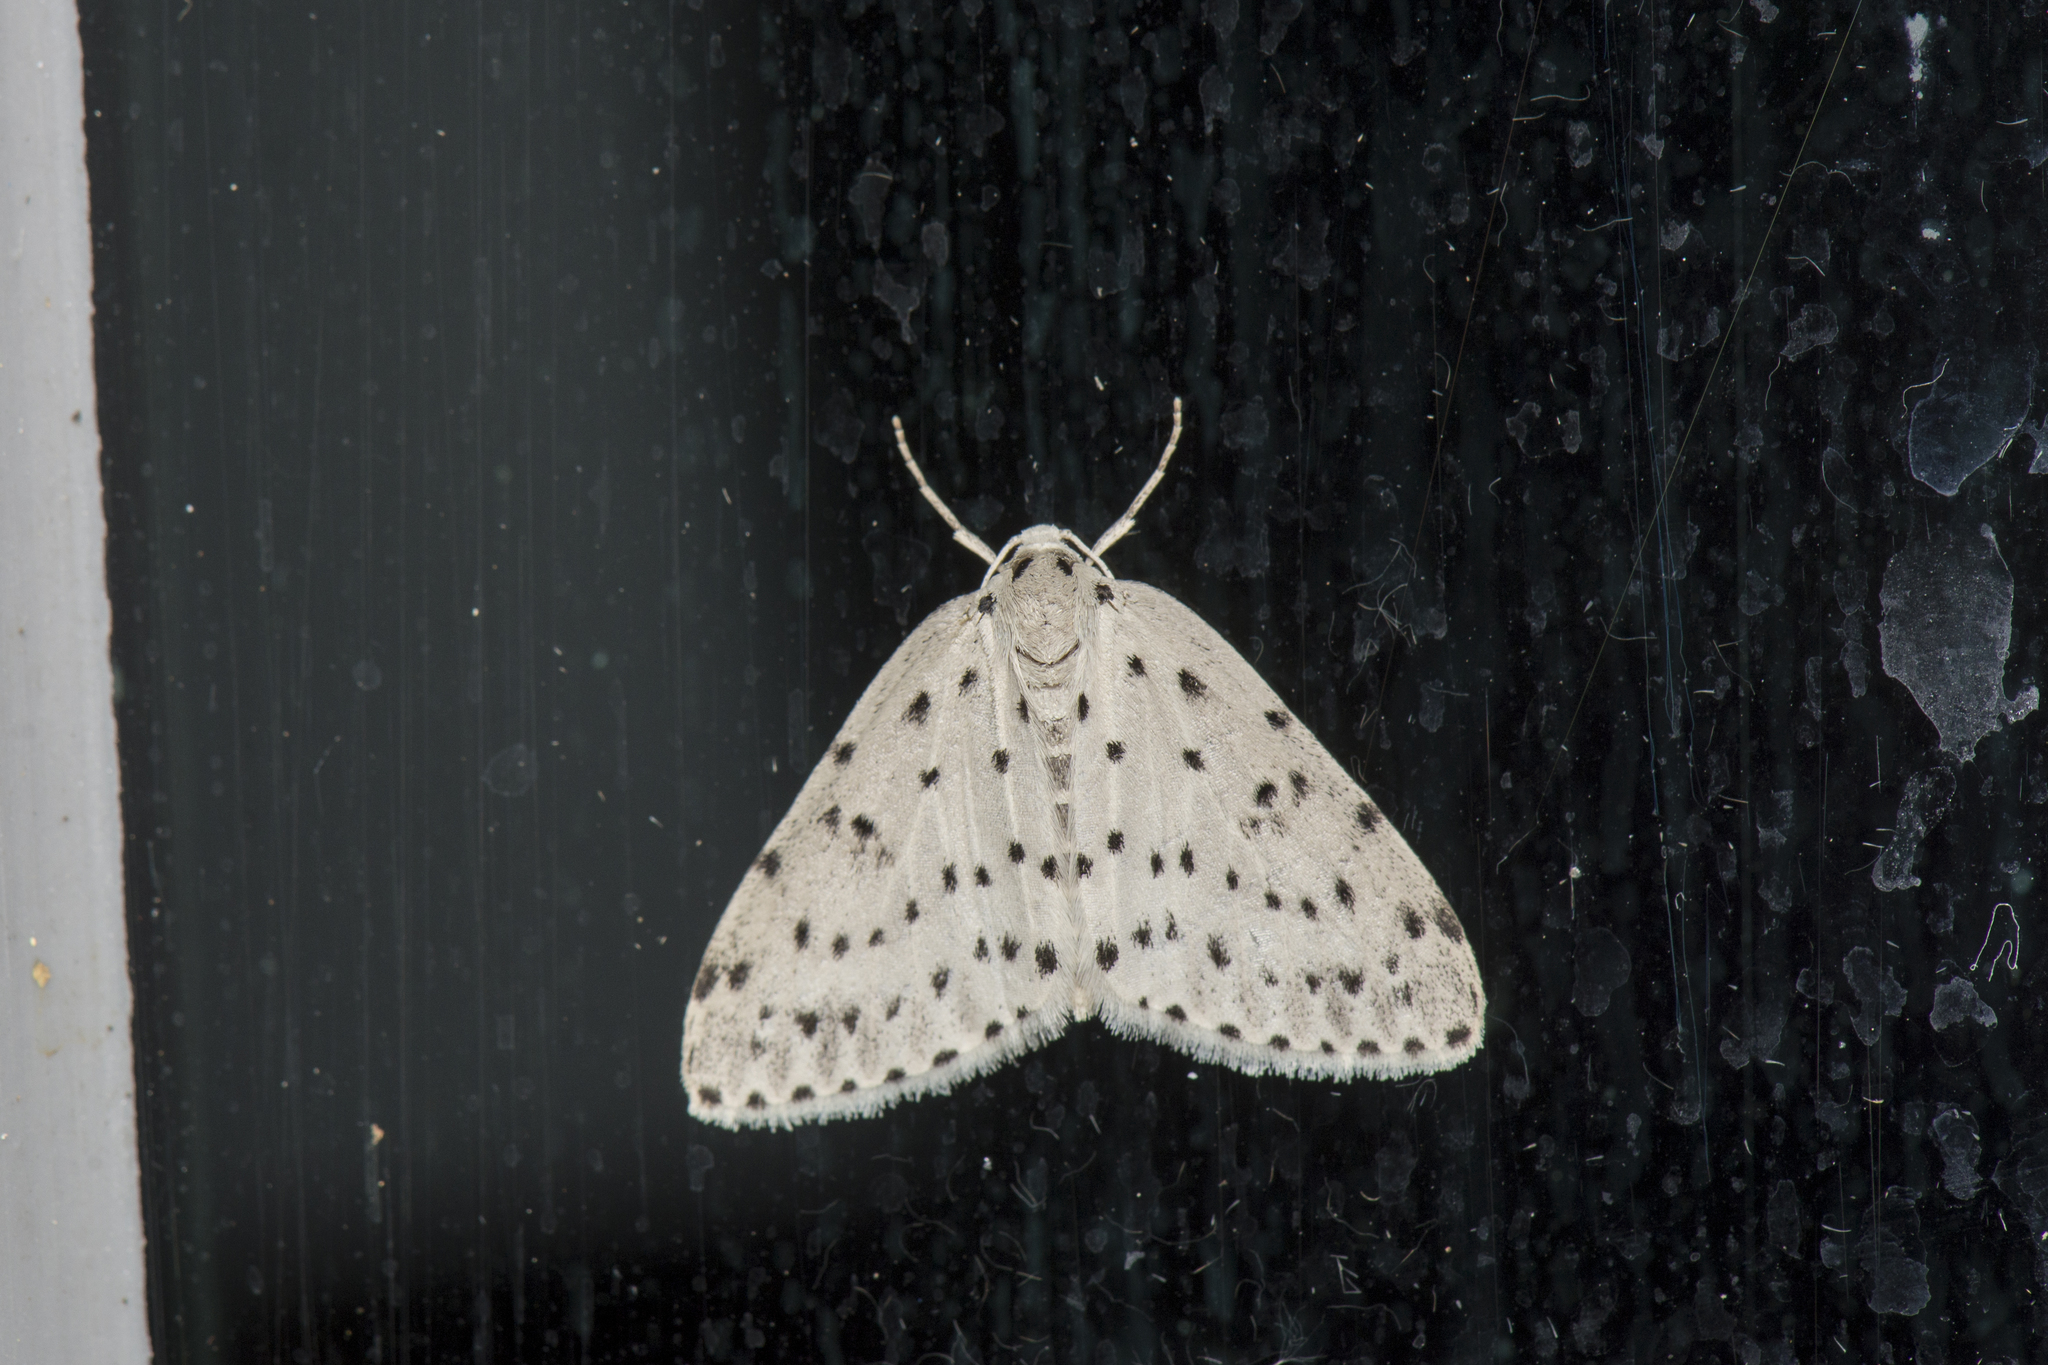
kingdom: Animalia
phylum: Arthropoda
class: Insecta
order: Lepidoptera
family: Geometridae
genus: Naxidia
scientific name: Naxidia punctata
